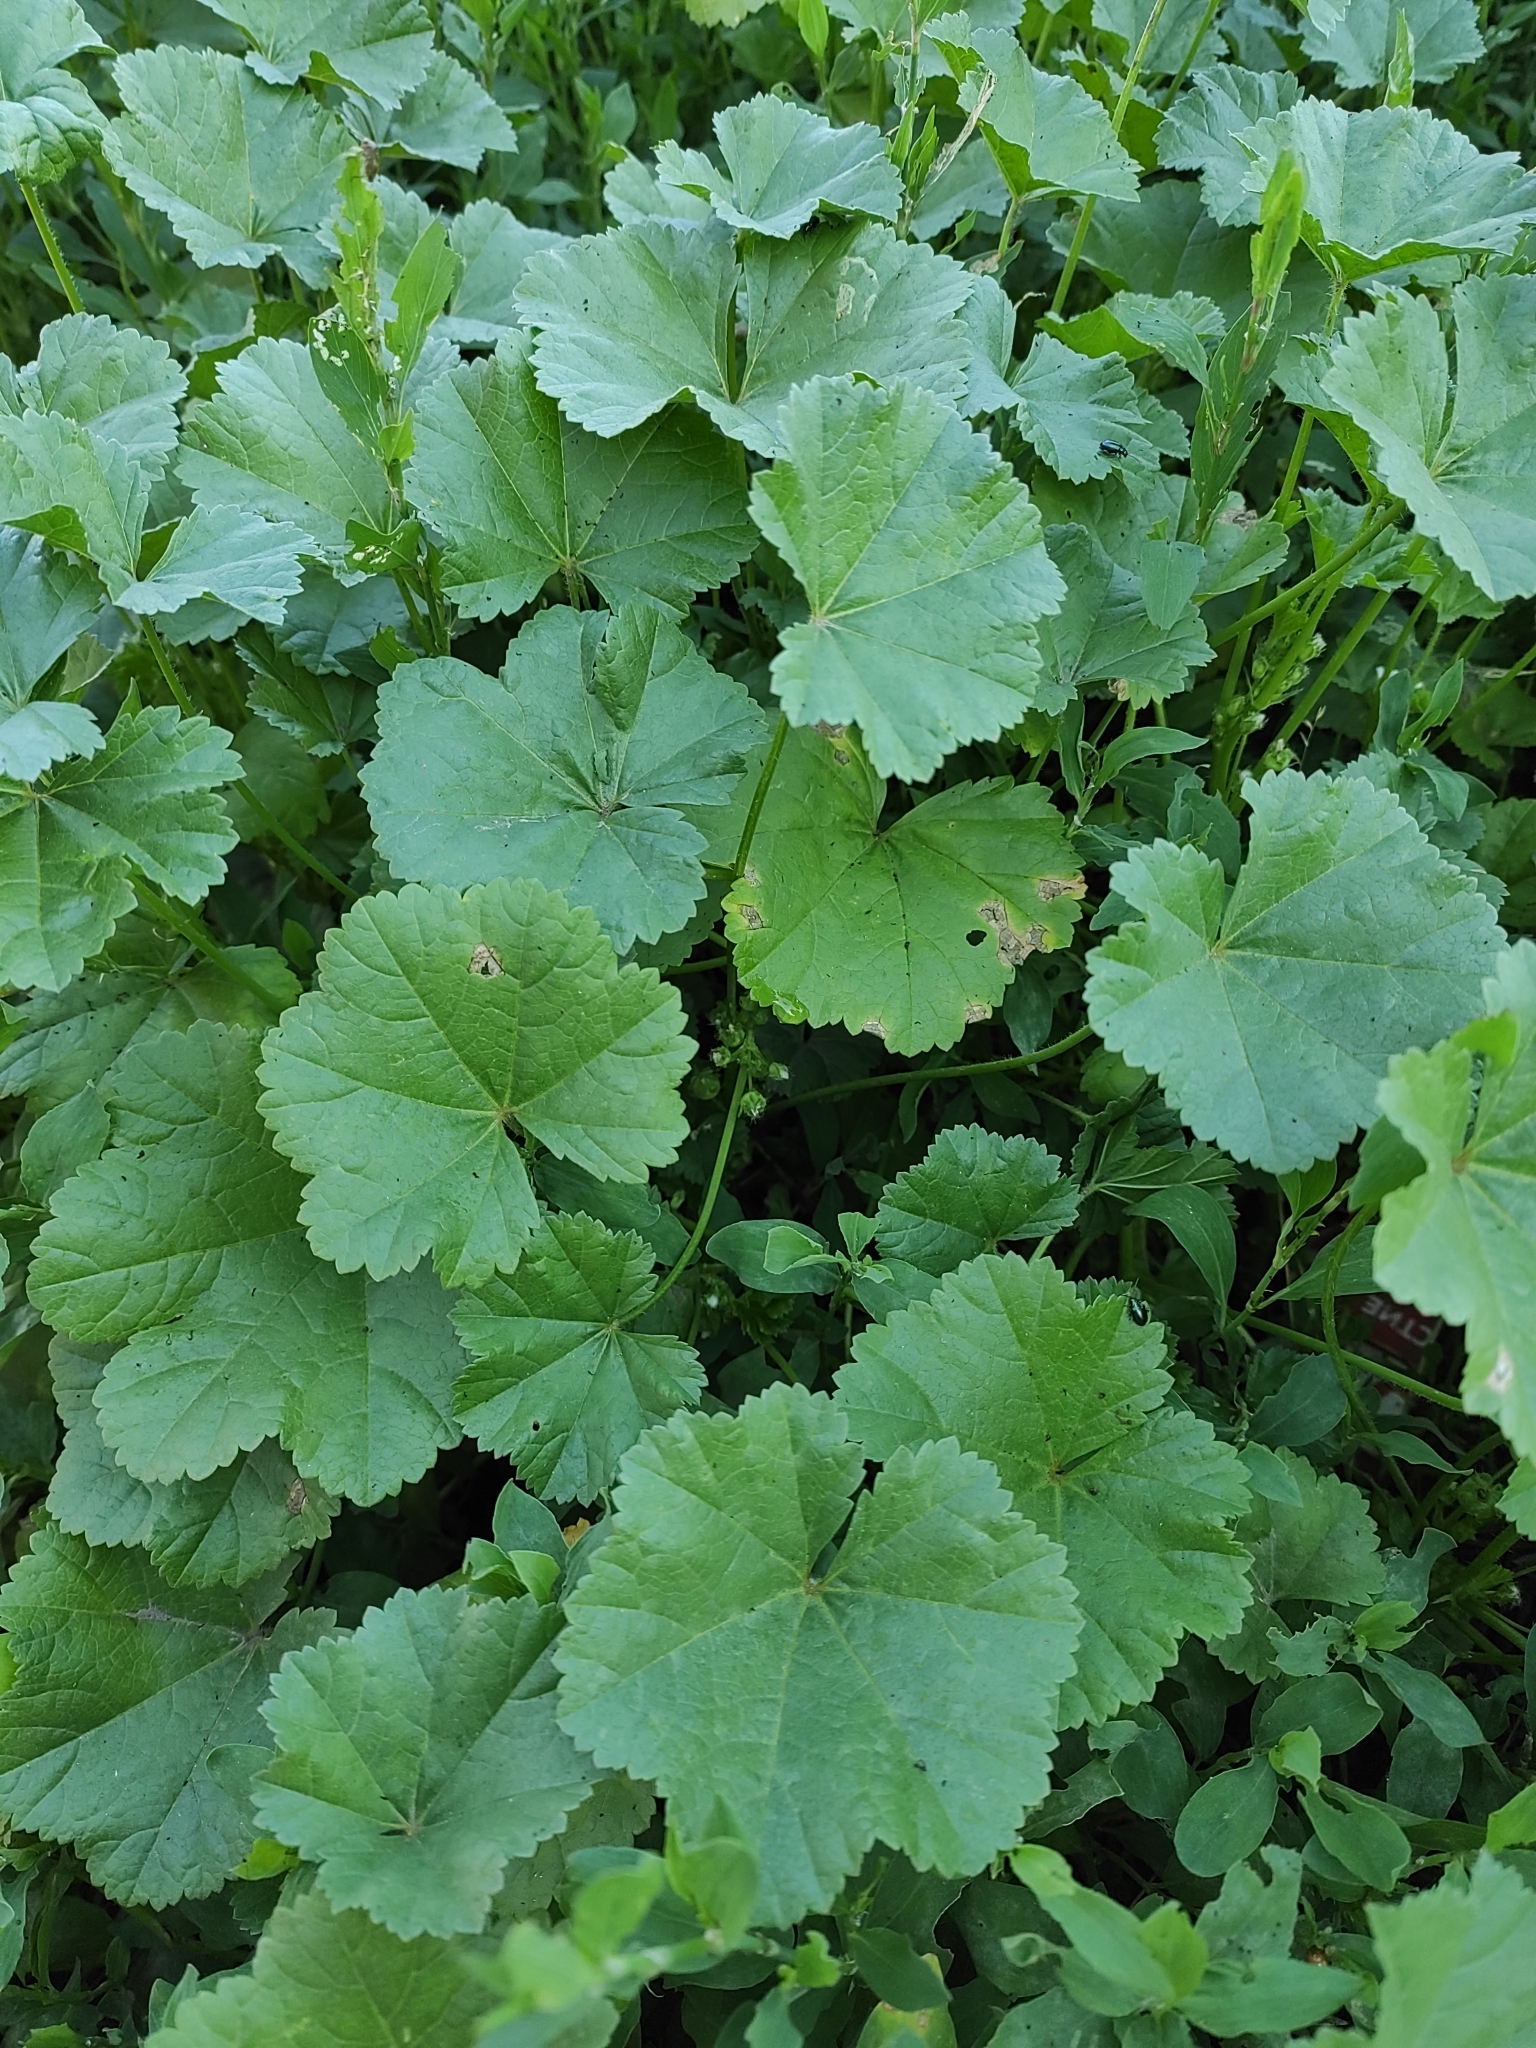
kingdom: Plantae
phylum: Tracheophyta
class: Magnoliopsida
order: Malvales
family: Malvaceae
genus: Malva
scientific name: Malva pusilla
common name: Small mallow
